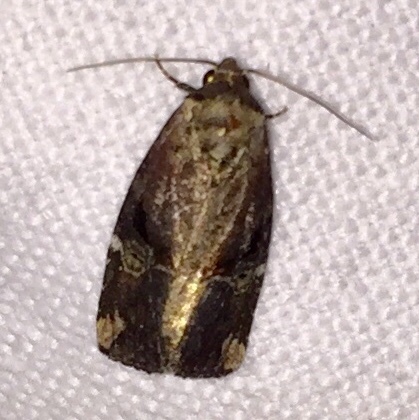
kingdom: Animalia
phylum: Arthropoda
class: Insecta
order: Lepidoptera
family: Noctuidae
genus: Elaphria
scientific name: Elaphria versicolor
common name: Fir harlequin
